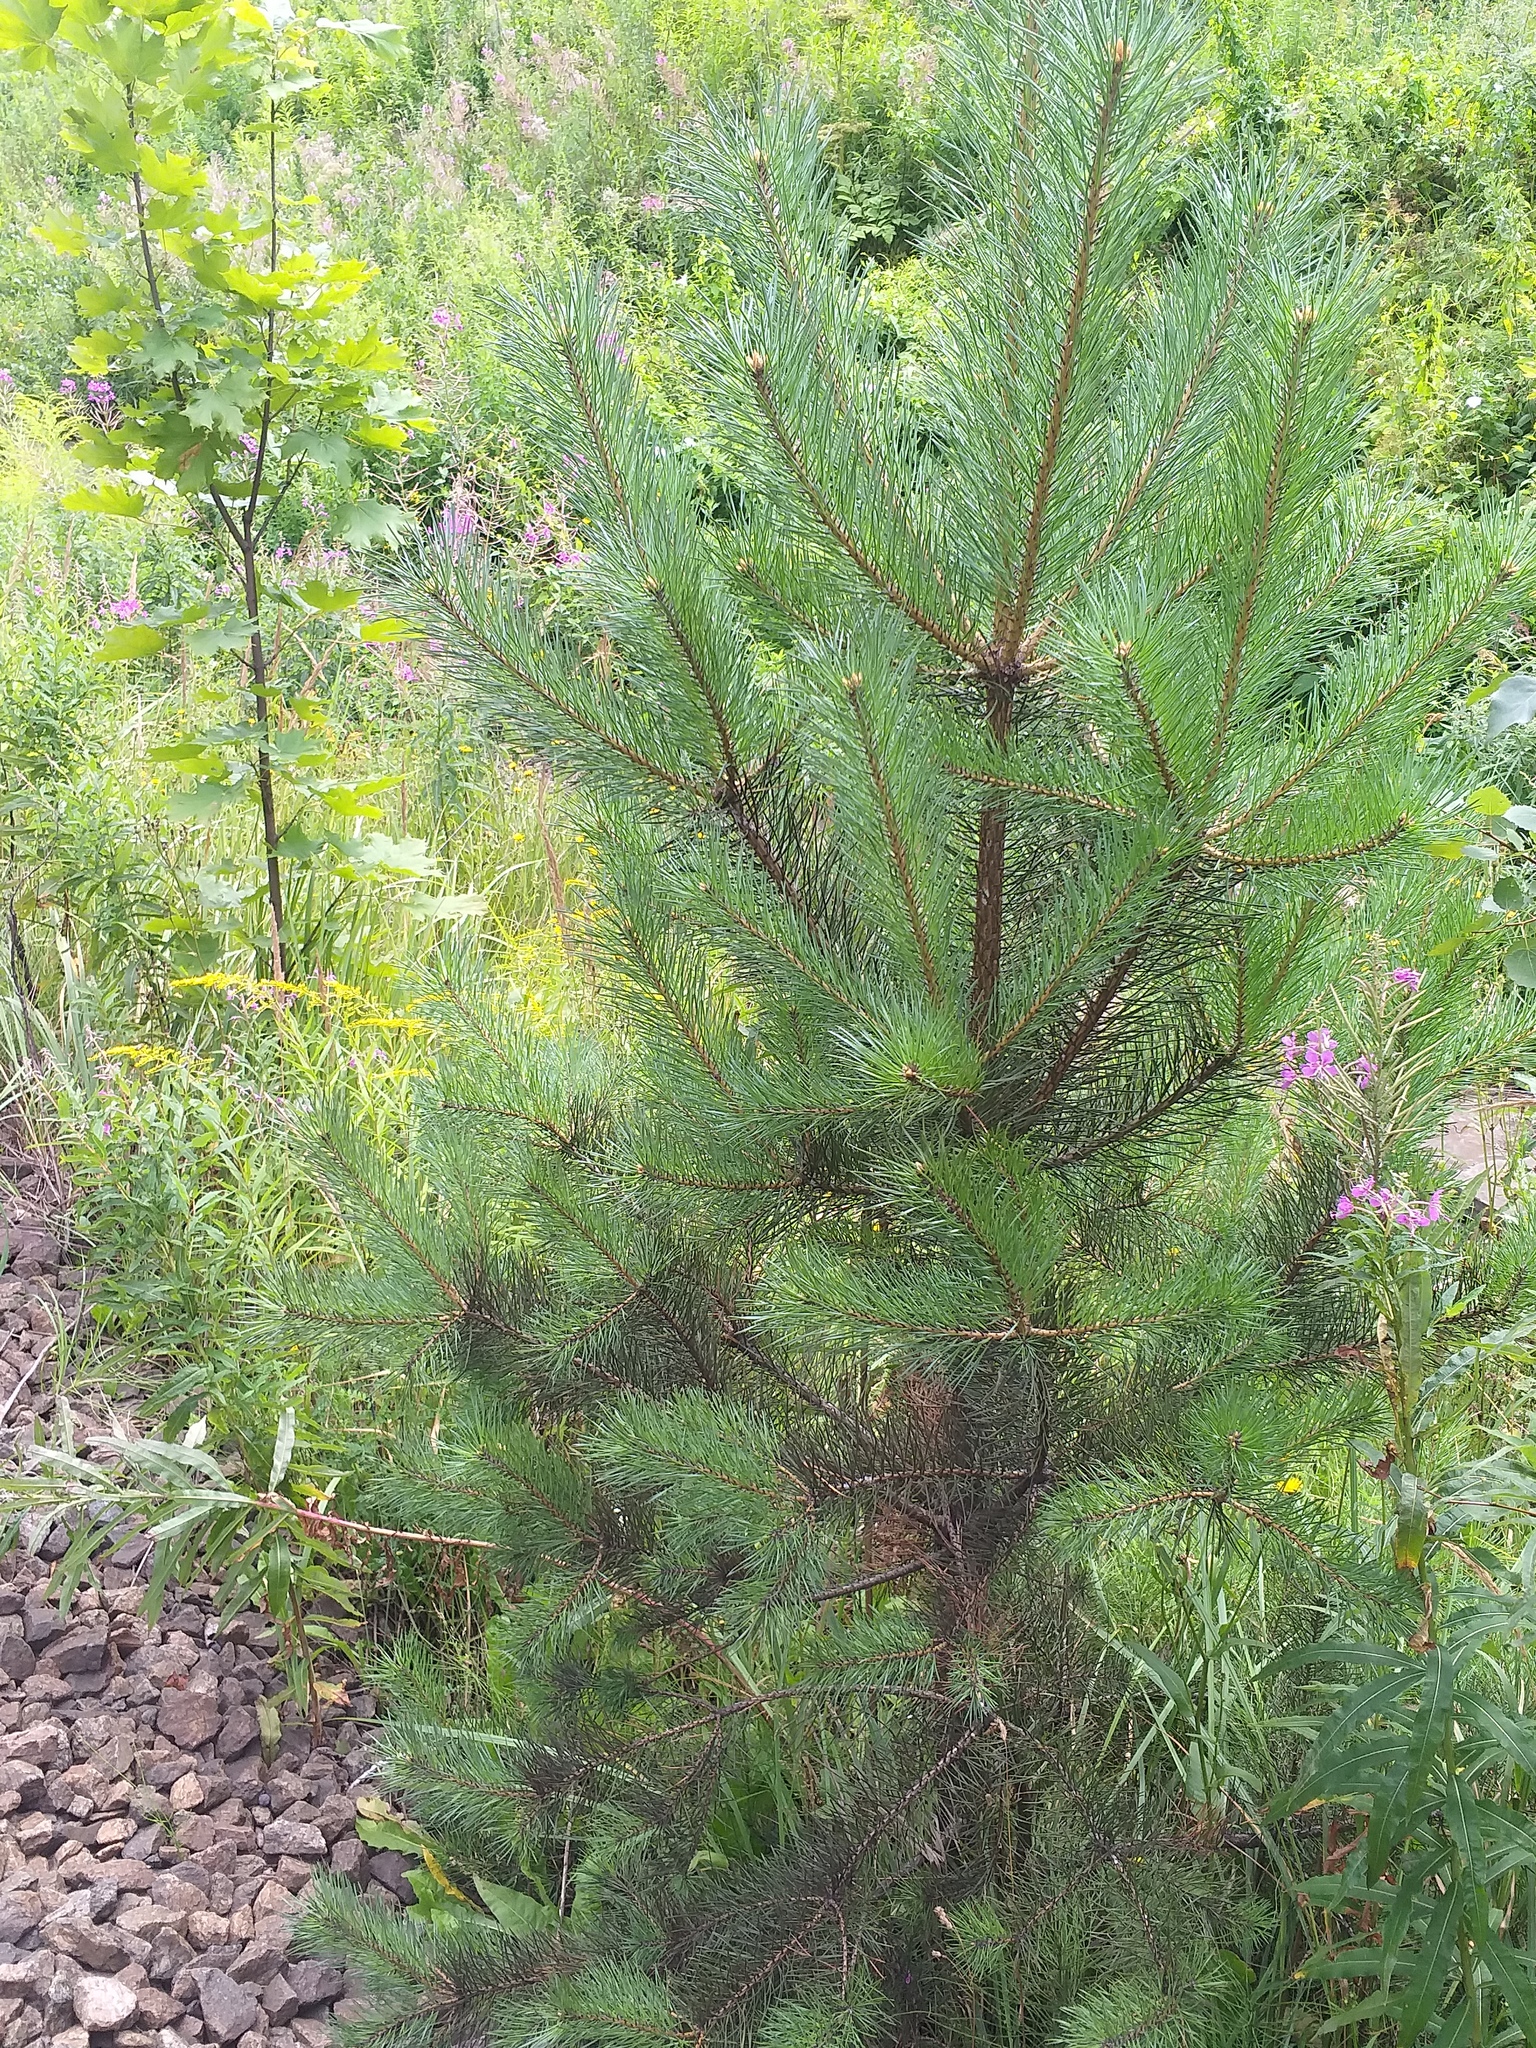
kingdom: Plantae
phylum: Tracheophyta
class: Pinopsida
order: Pinales
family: Pinaceae
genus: Pinus
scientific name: Pinus sylvestris
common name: Scots pine
